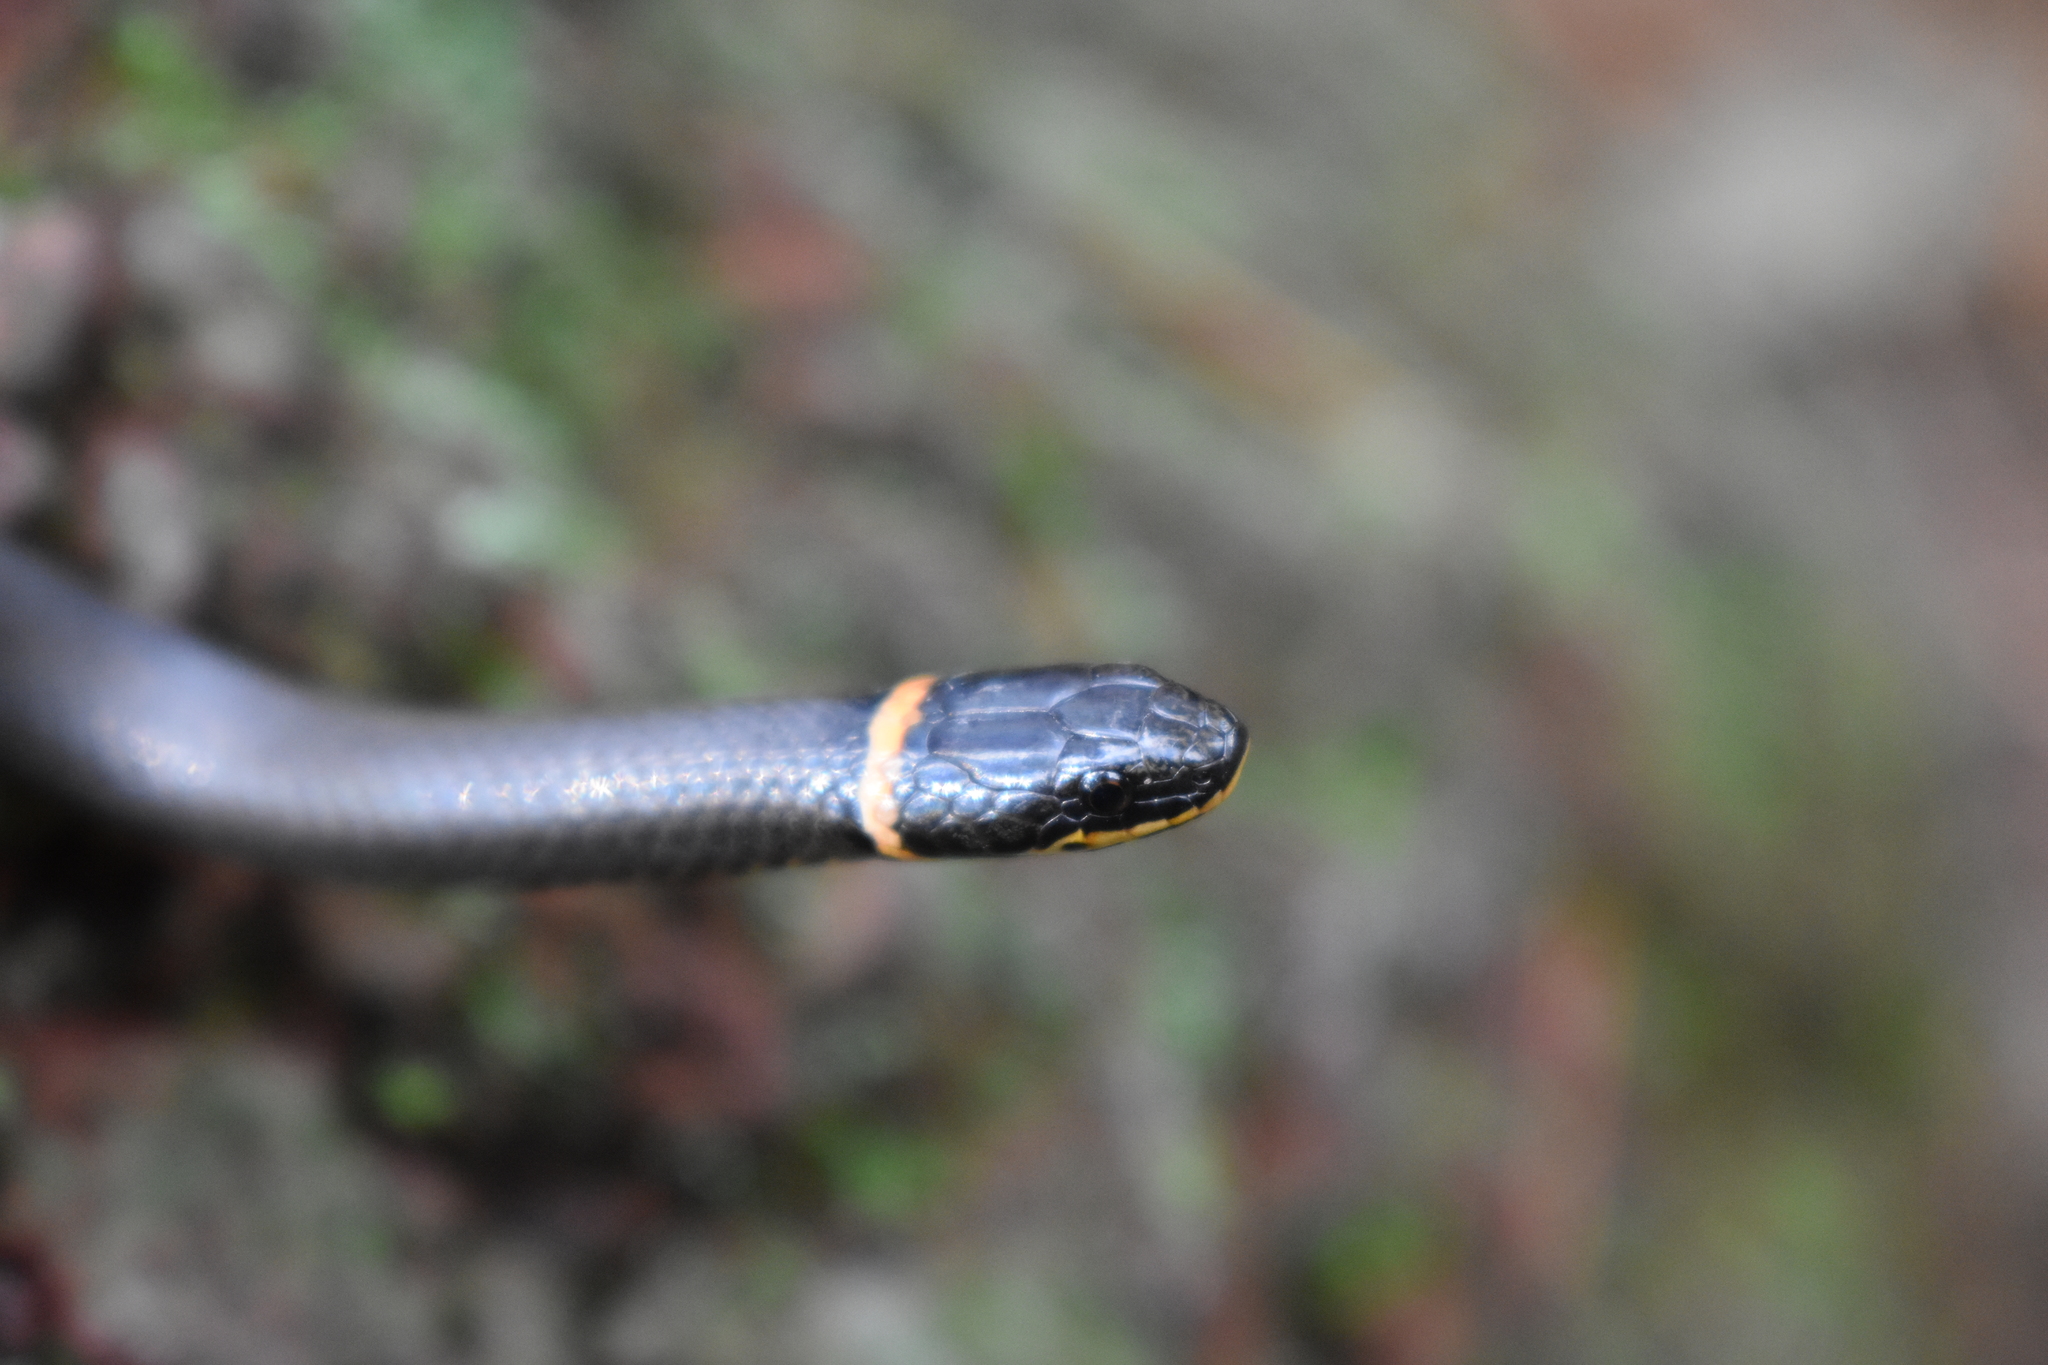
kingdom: Animalia
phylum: Chordata
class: Squamata
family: Colubridae
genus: Diadophis
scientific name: Diadophis punctatus
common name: Ringneck snake
